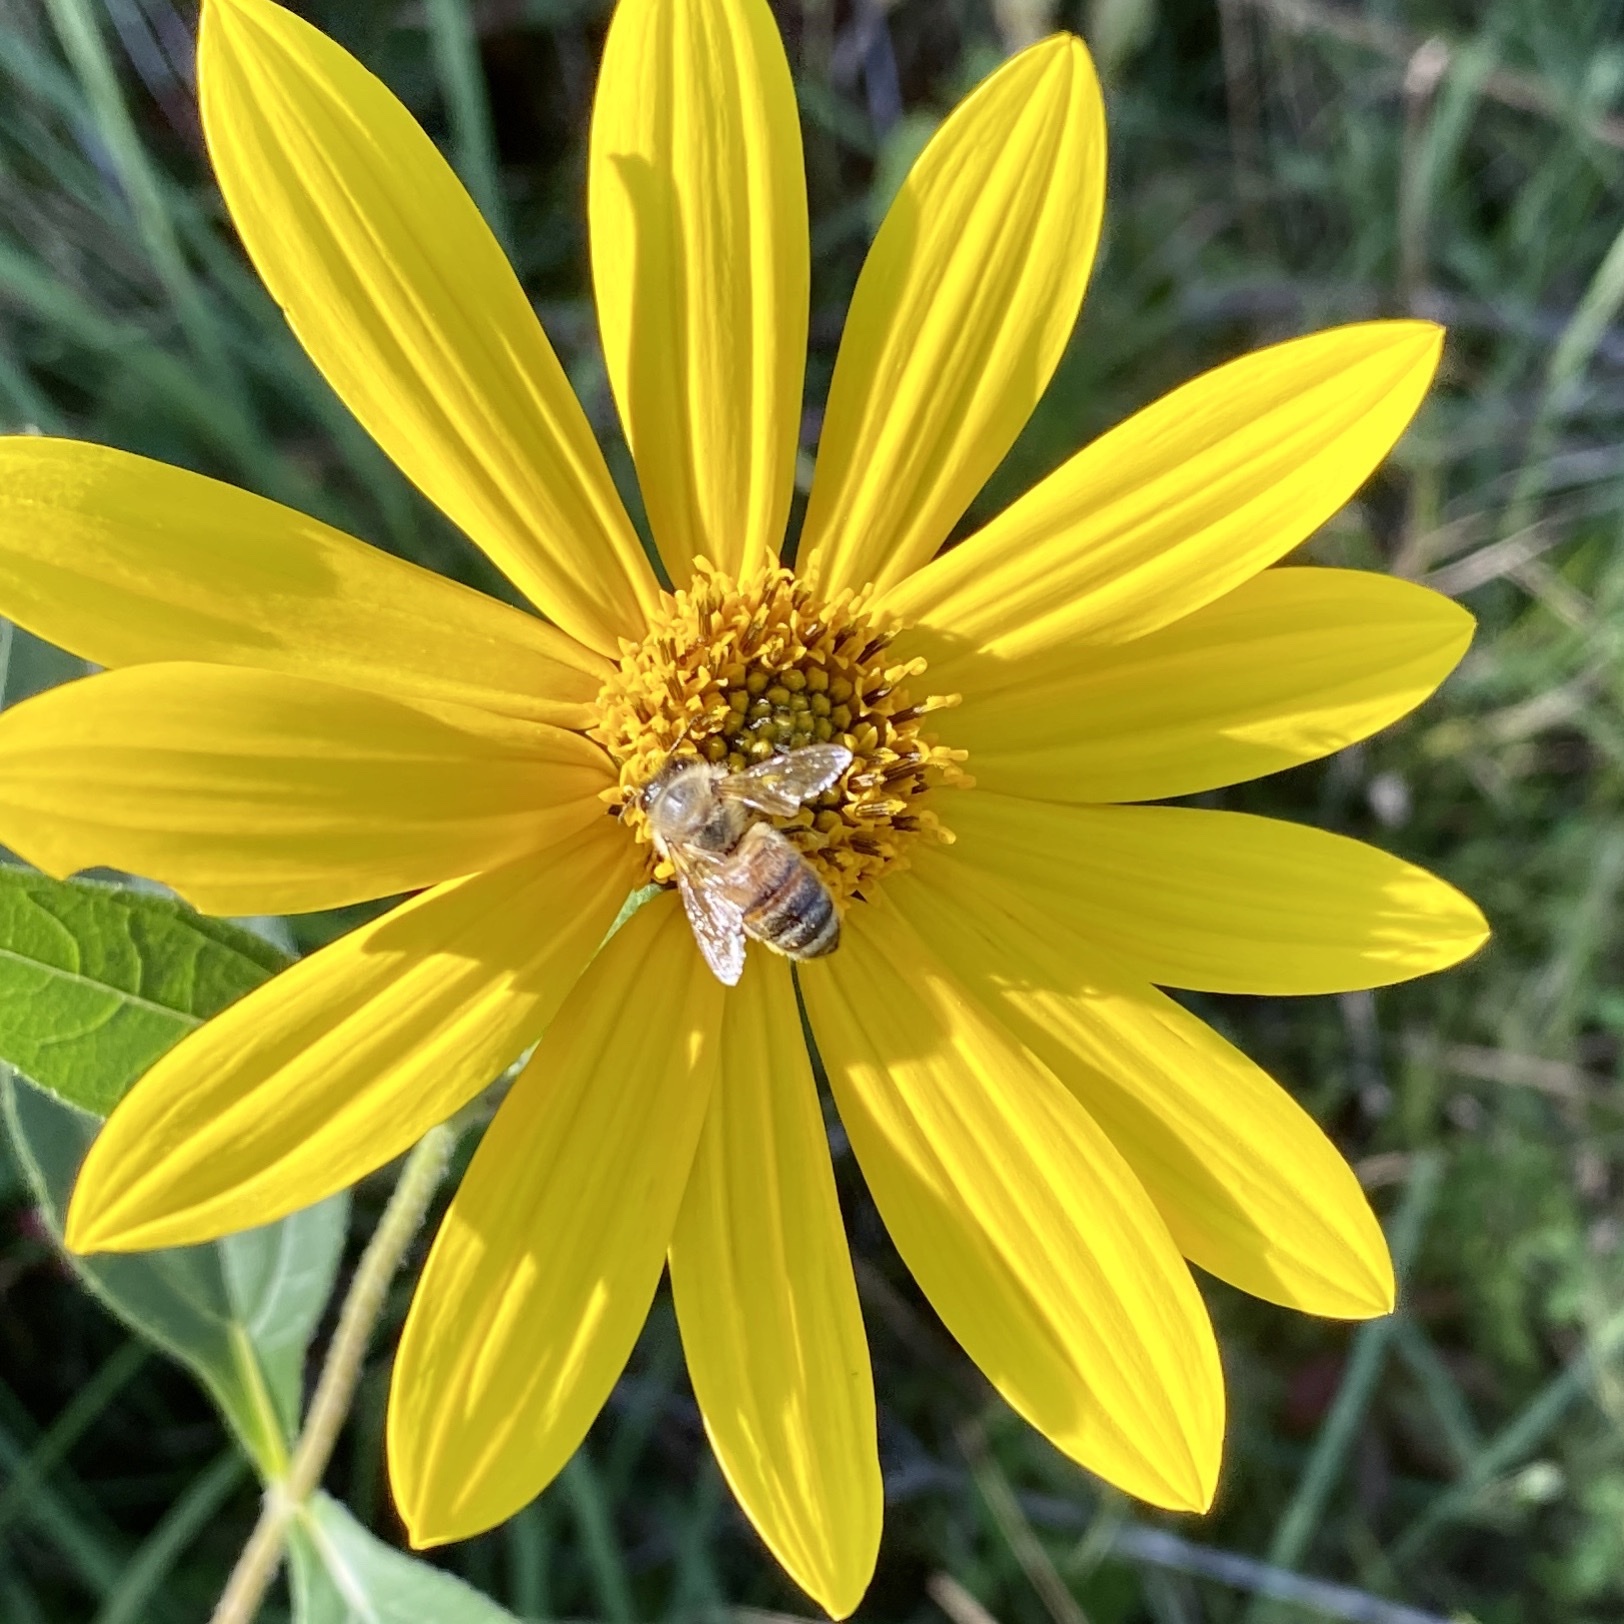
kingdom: Animalia
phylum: Arthropoda
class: Insecta
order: Hymenoptera
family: Apidae
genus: Apis
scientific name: Apis mellifera
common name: Honey bee
